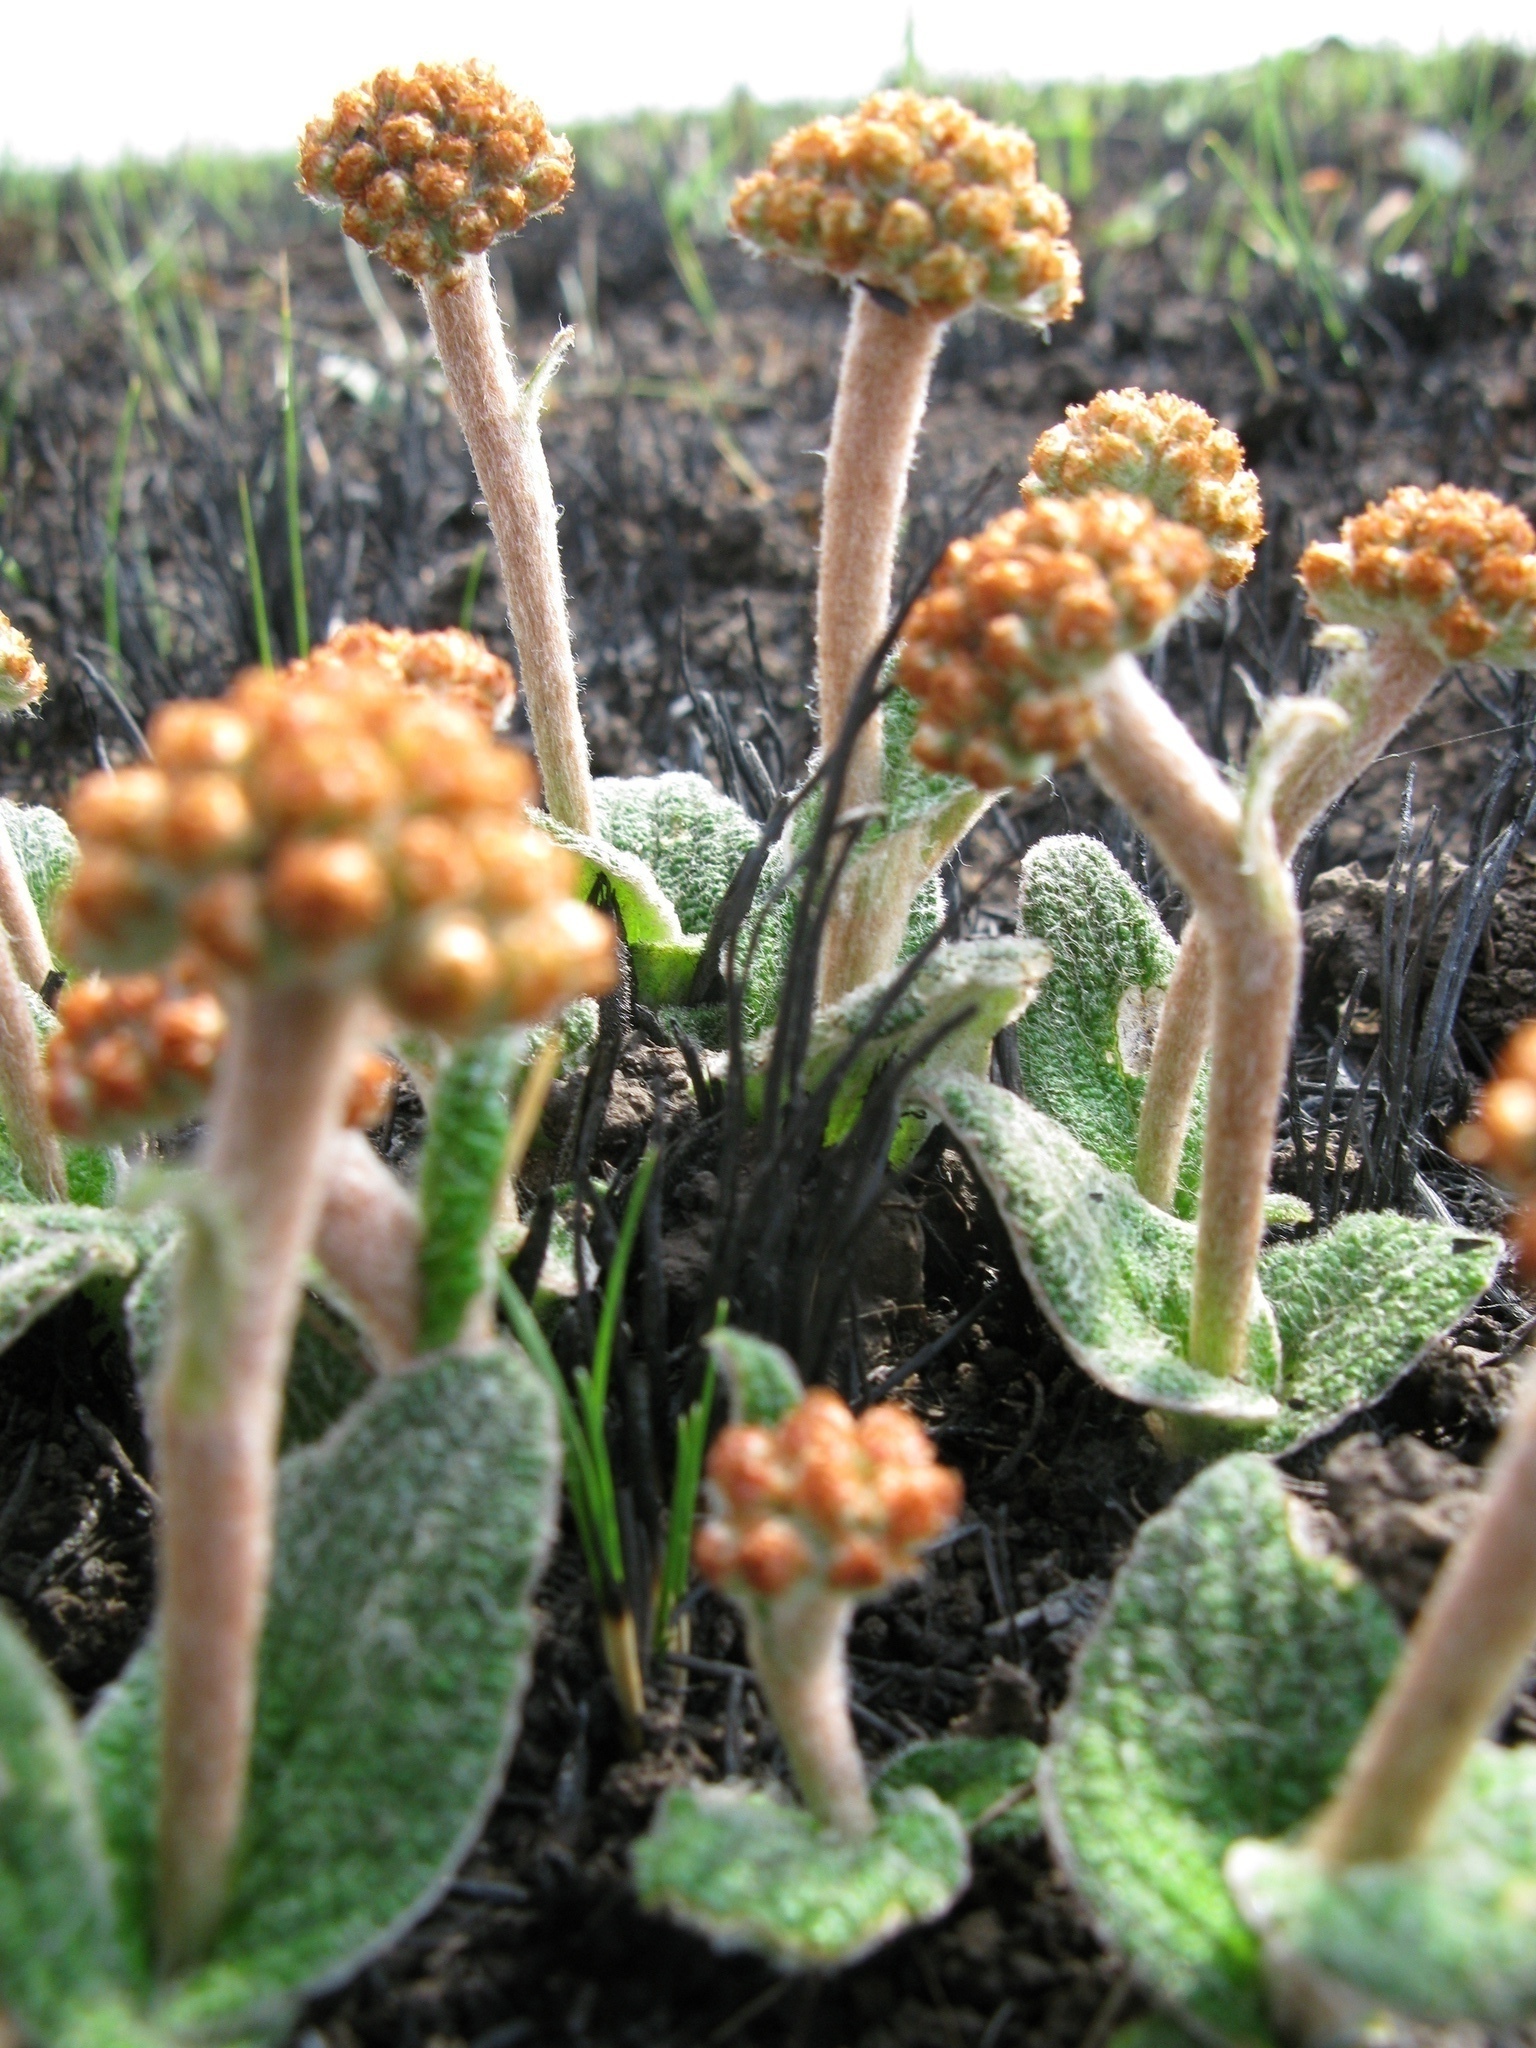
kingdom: Plantae
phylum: Tracheophyta
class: Magnoliopsida
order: Asterales
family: Asteraceae
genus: Helichrysum
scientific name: Helichrysum nudifolium
